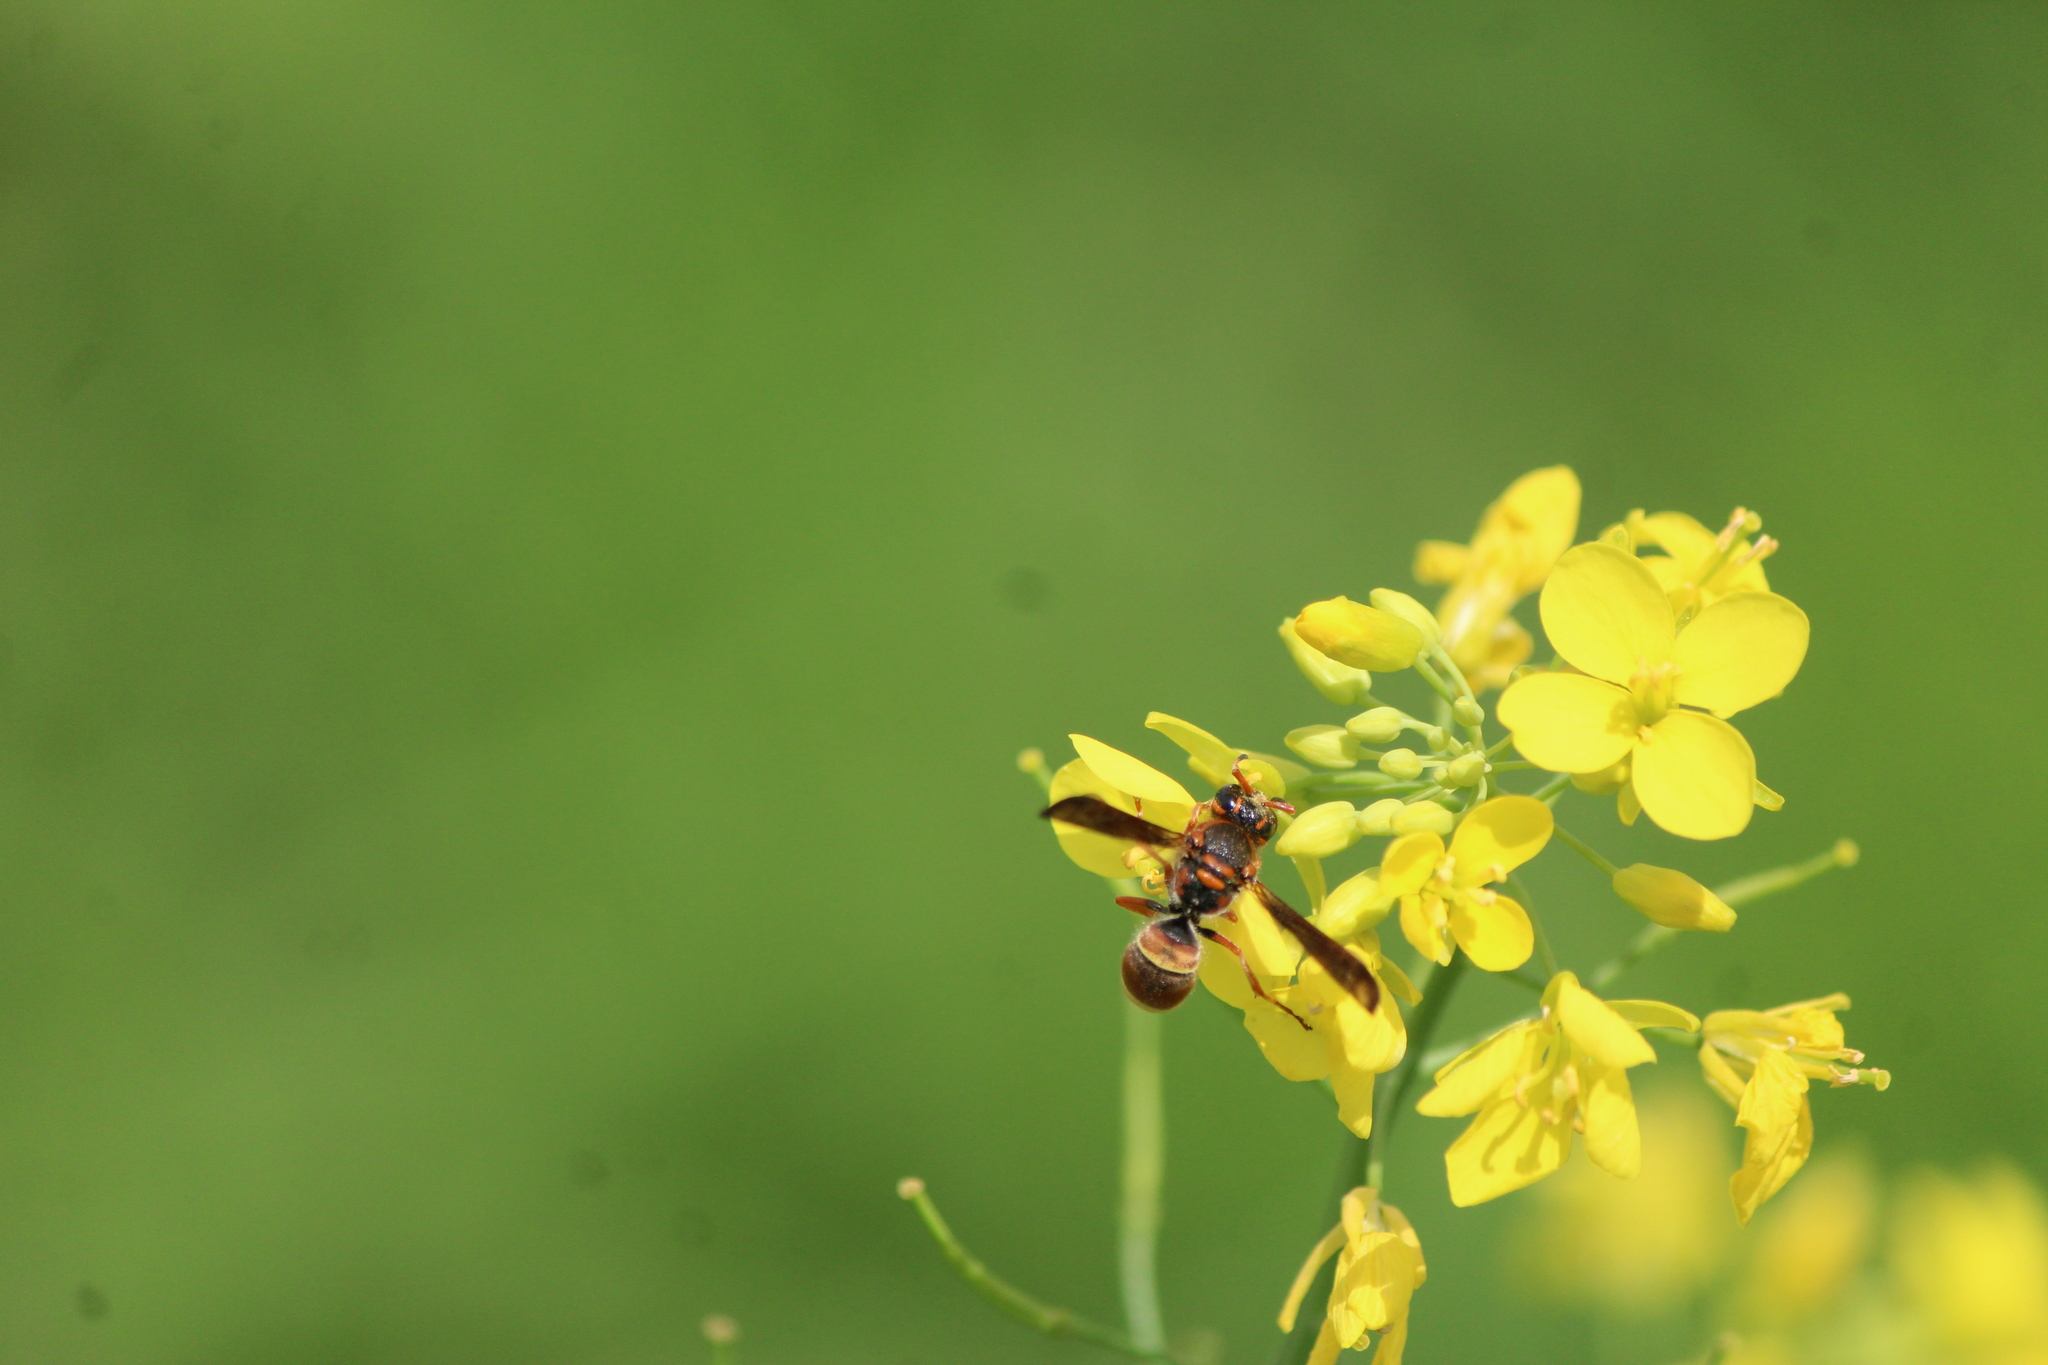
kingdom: Animalia
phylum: Arthropoda
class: Insecta
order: Hymenoptera
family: Vespidae
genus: Ancistrocerus
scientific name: Ancistrocerus
